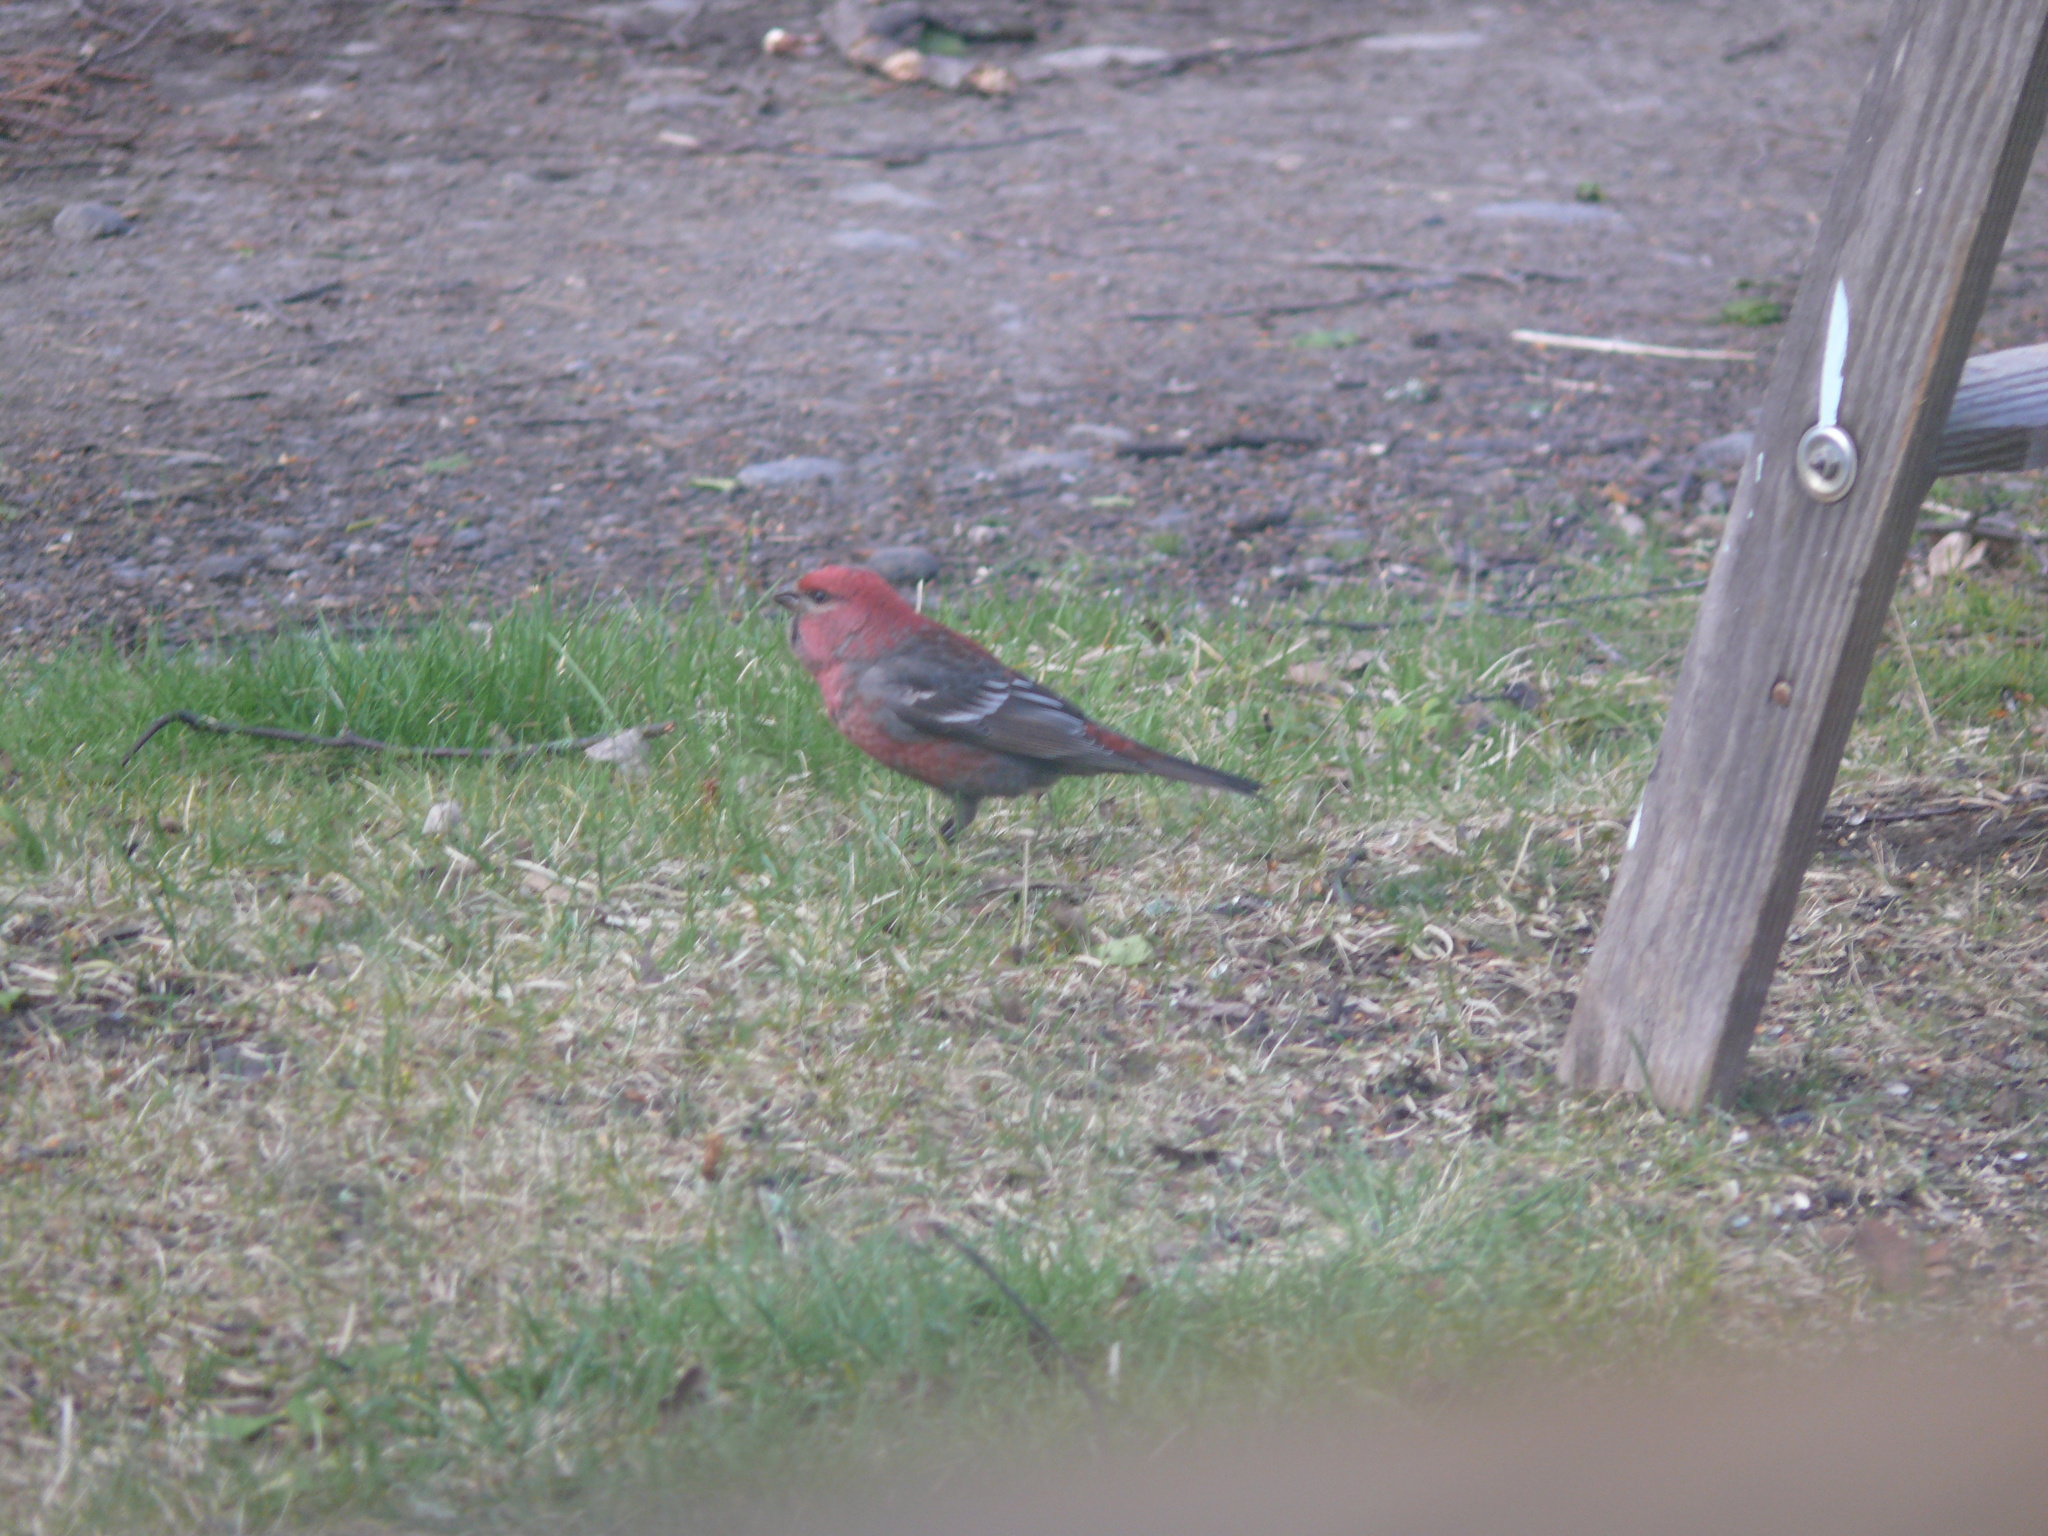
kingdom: Animalia
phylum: Chordata
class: Aves
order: Passeriformes
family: Fringillidae
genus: Pinicola
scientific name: Pinicola enucleator
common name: Pine grosbeak
